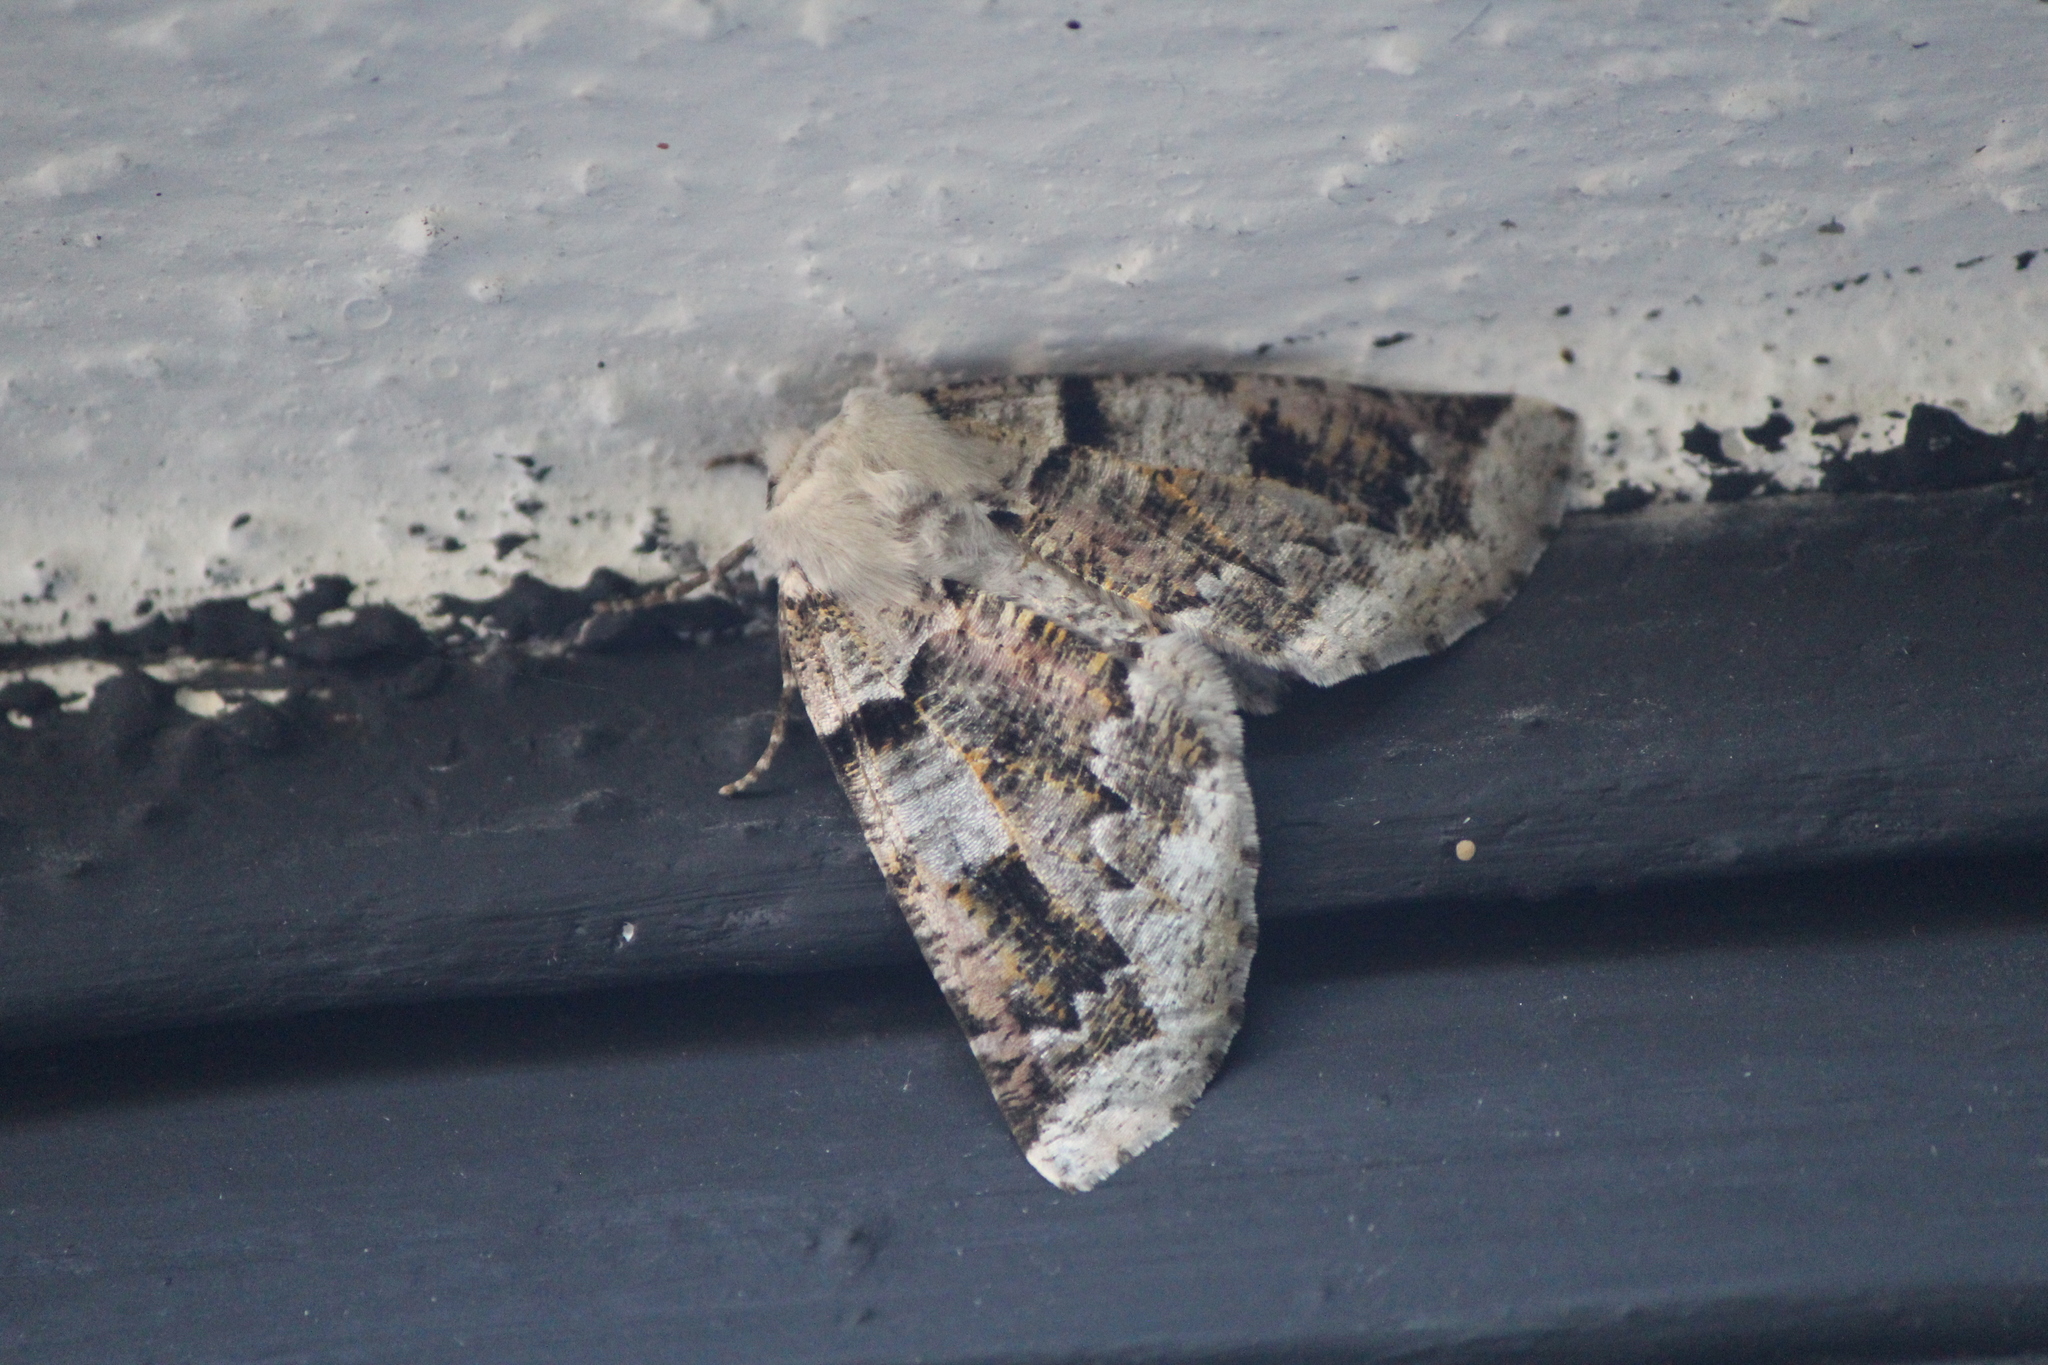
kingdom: Animalia
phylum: Arthropoda
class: Insecta
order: Lepidoptera
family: Geometridae
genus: Acronyctodes
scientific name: Acronyctodes mexicanaria
